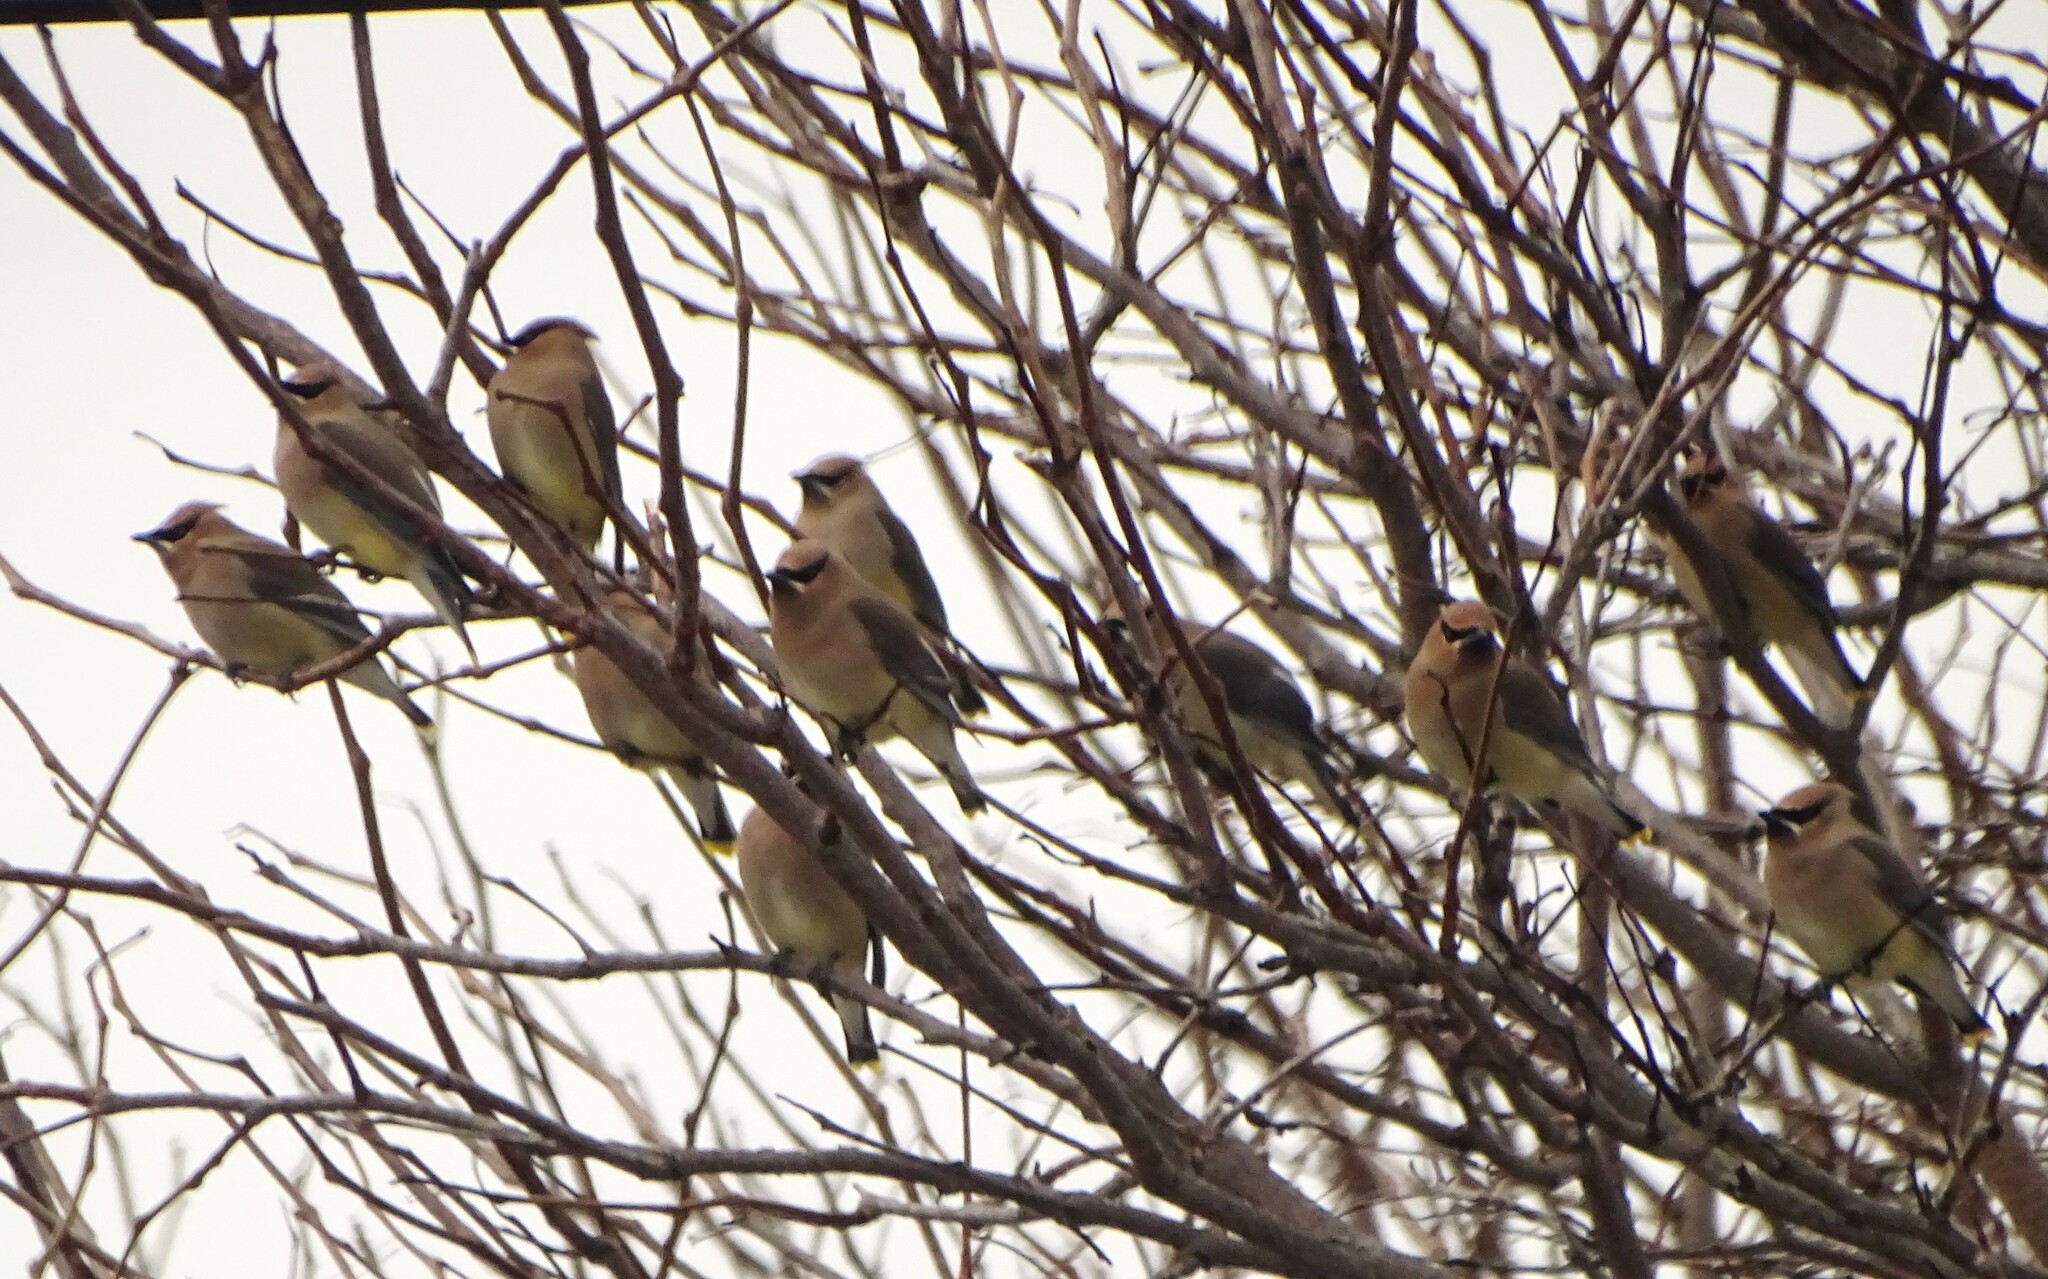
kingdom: Animalia
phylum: Chordata
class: Aves
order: Passeriformes
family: Bombycillidae
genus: Bombycilla
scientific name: Bombycilla cedrorum
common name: Cedar waxwing
